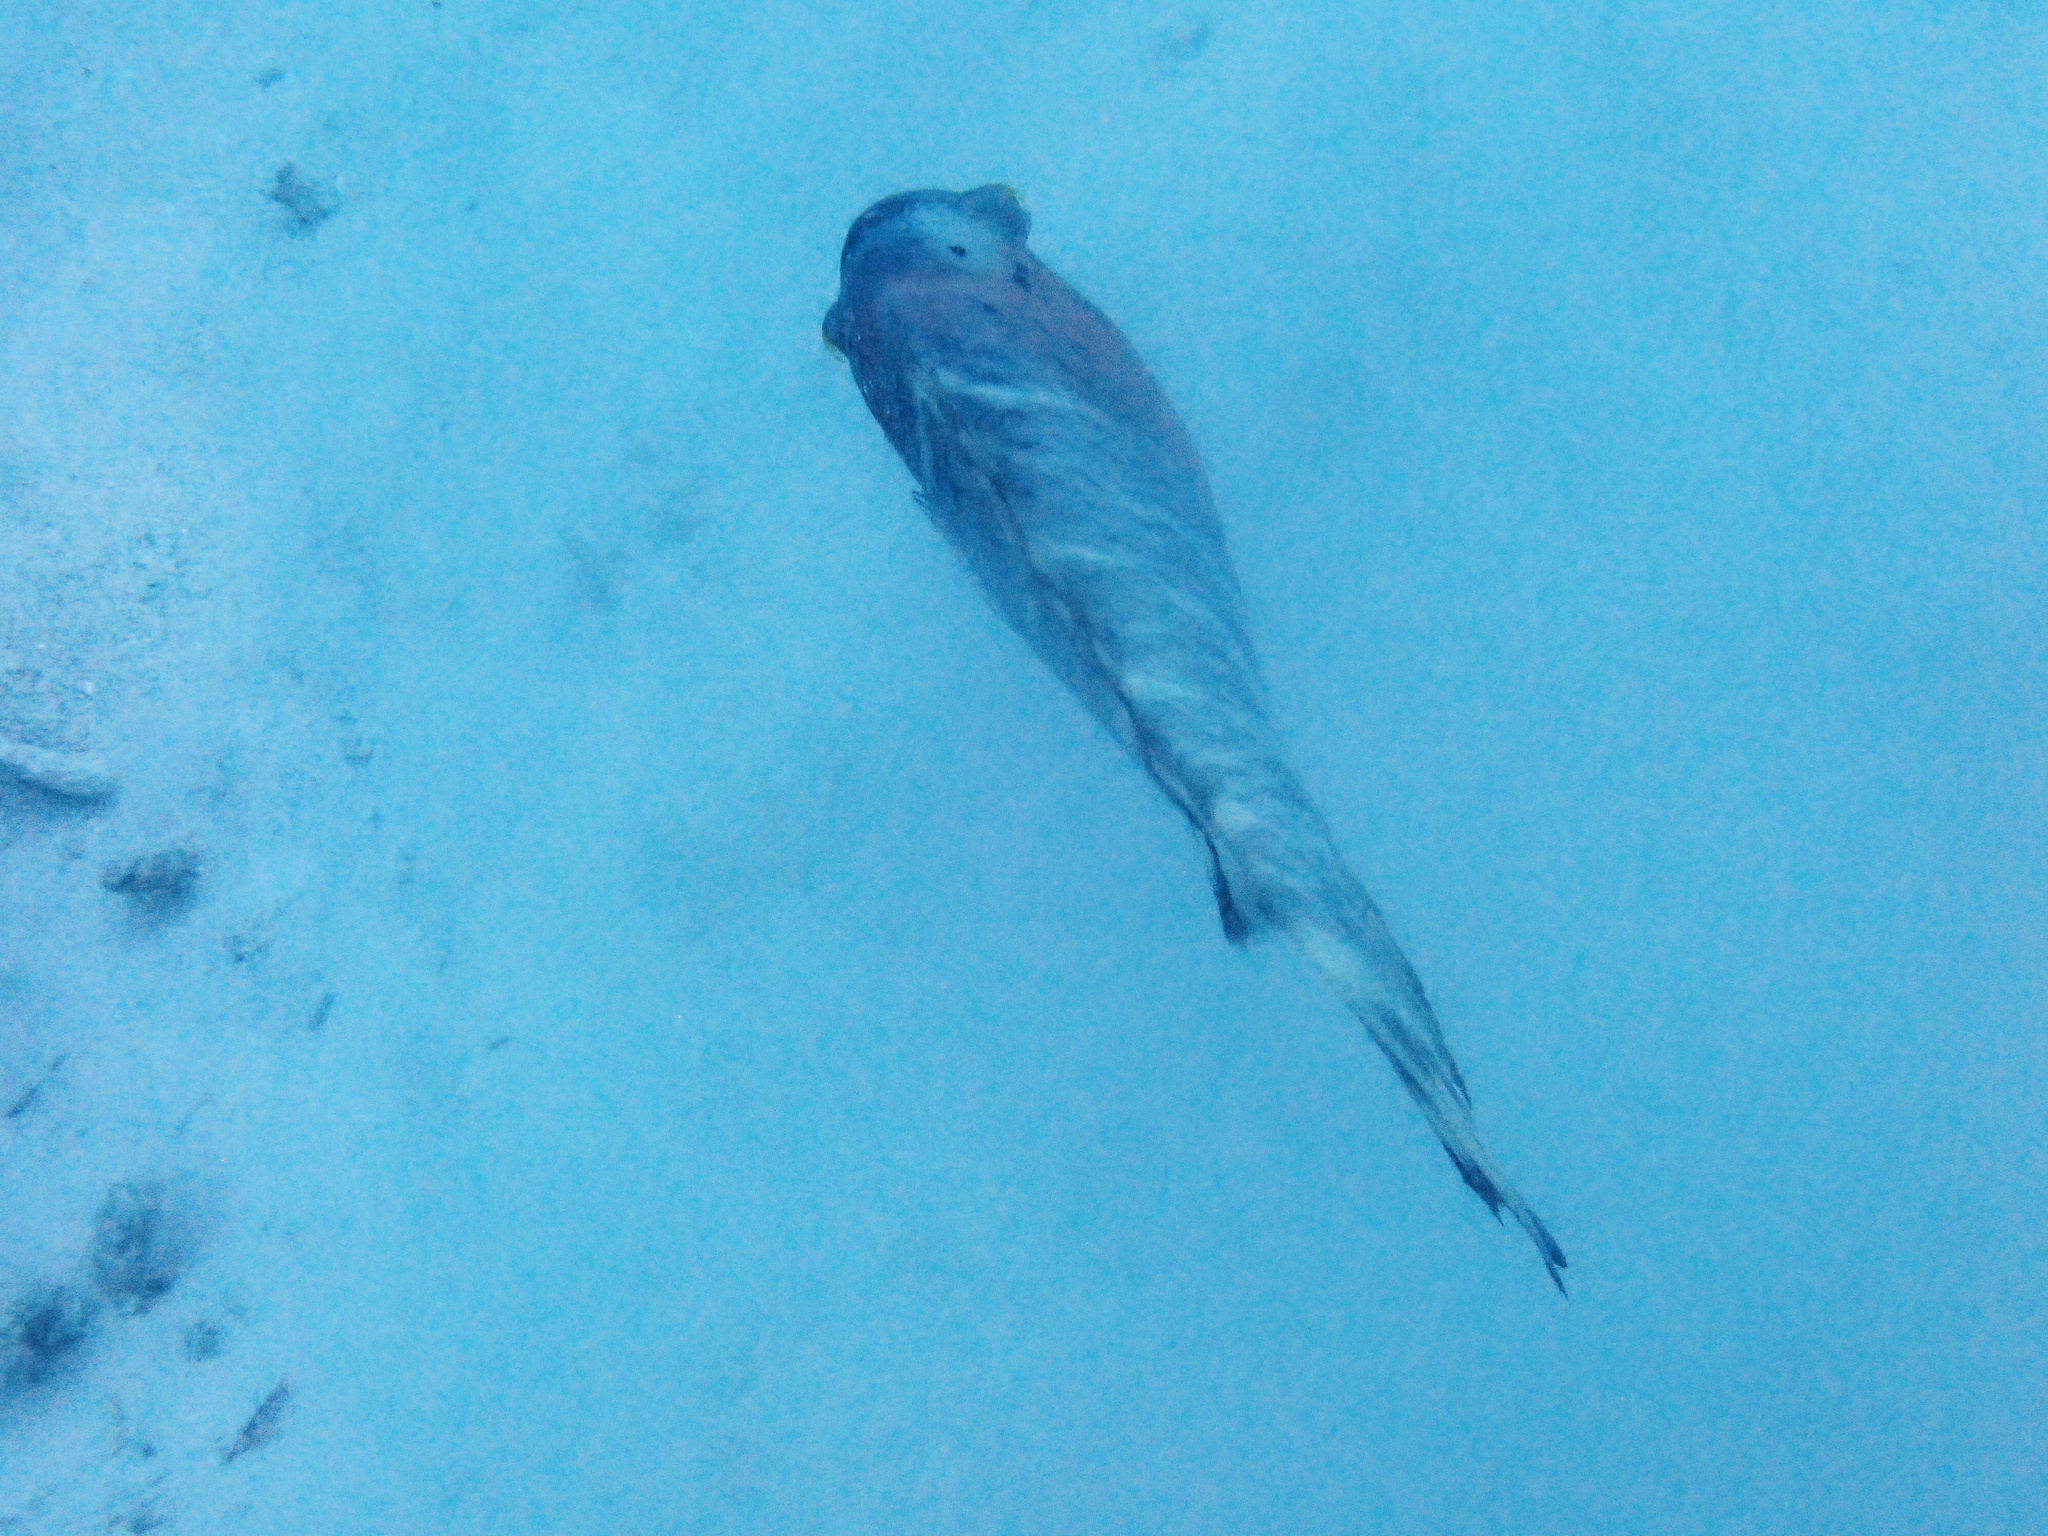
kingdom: Animalia
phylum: Chordata
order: Perciformes
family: Labridae
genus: Cheilinus
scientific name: Cheilinus fasciatus
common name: Red-breasted wrasse
